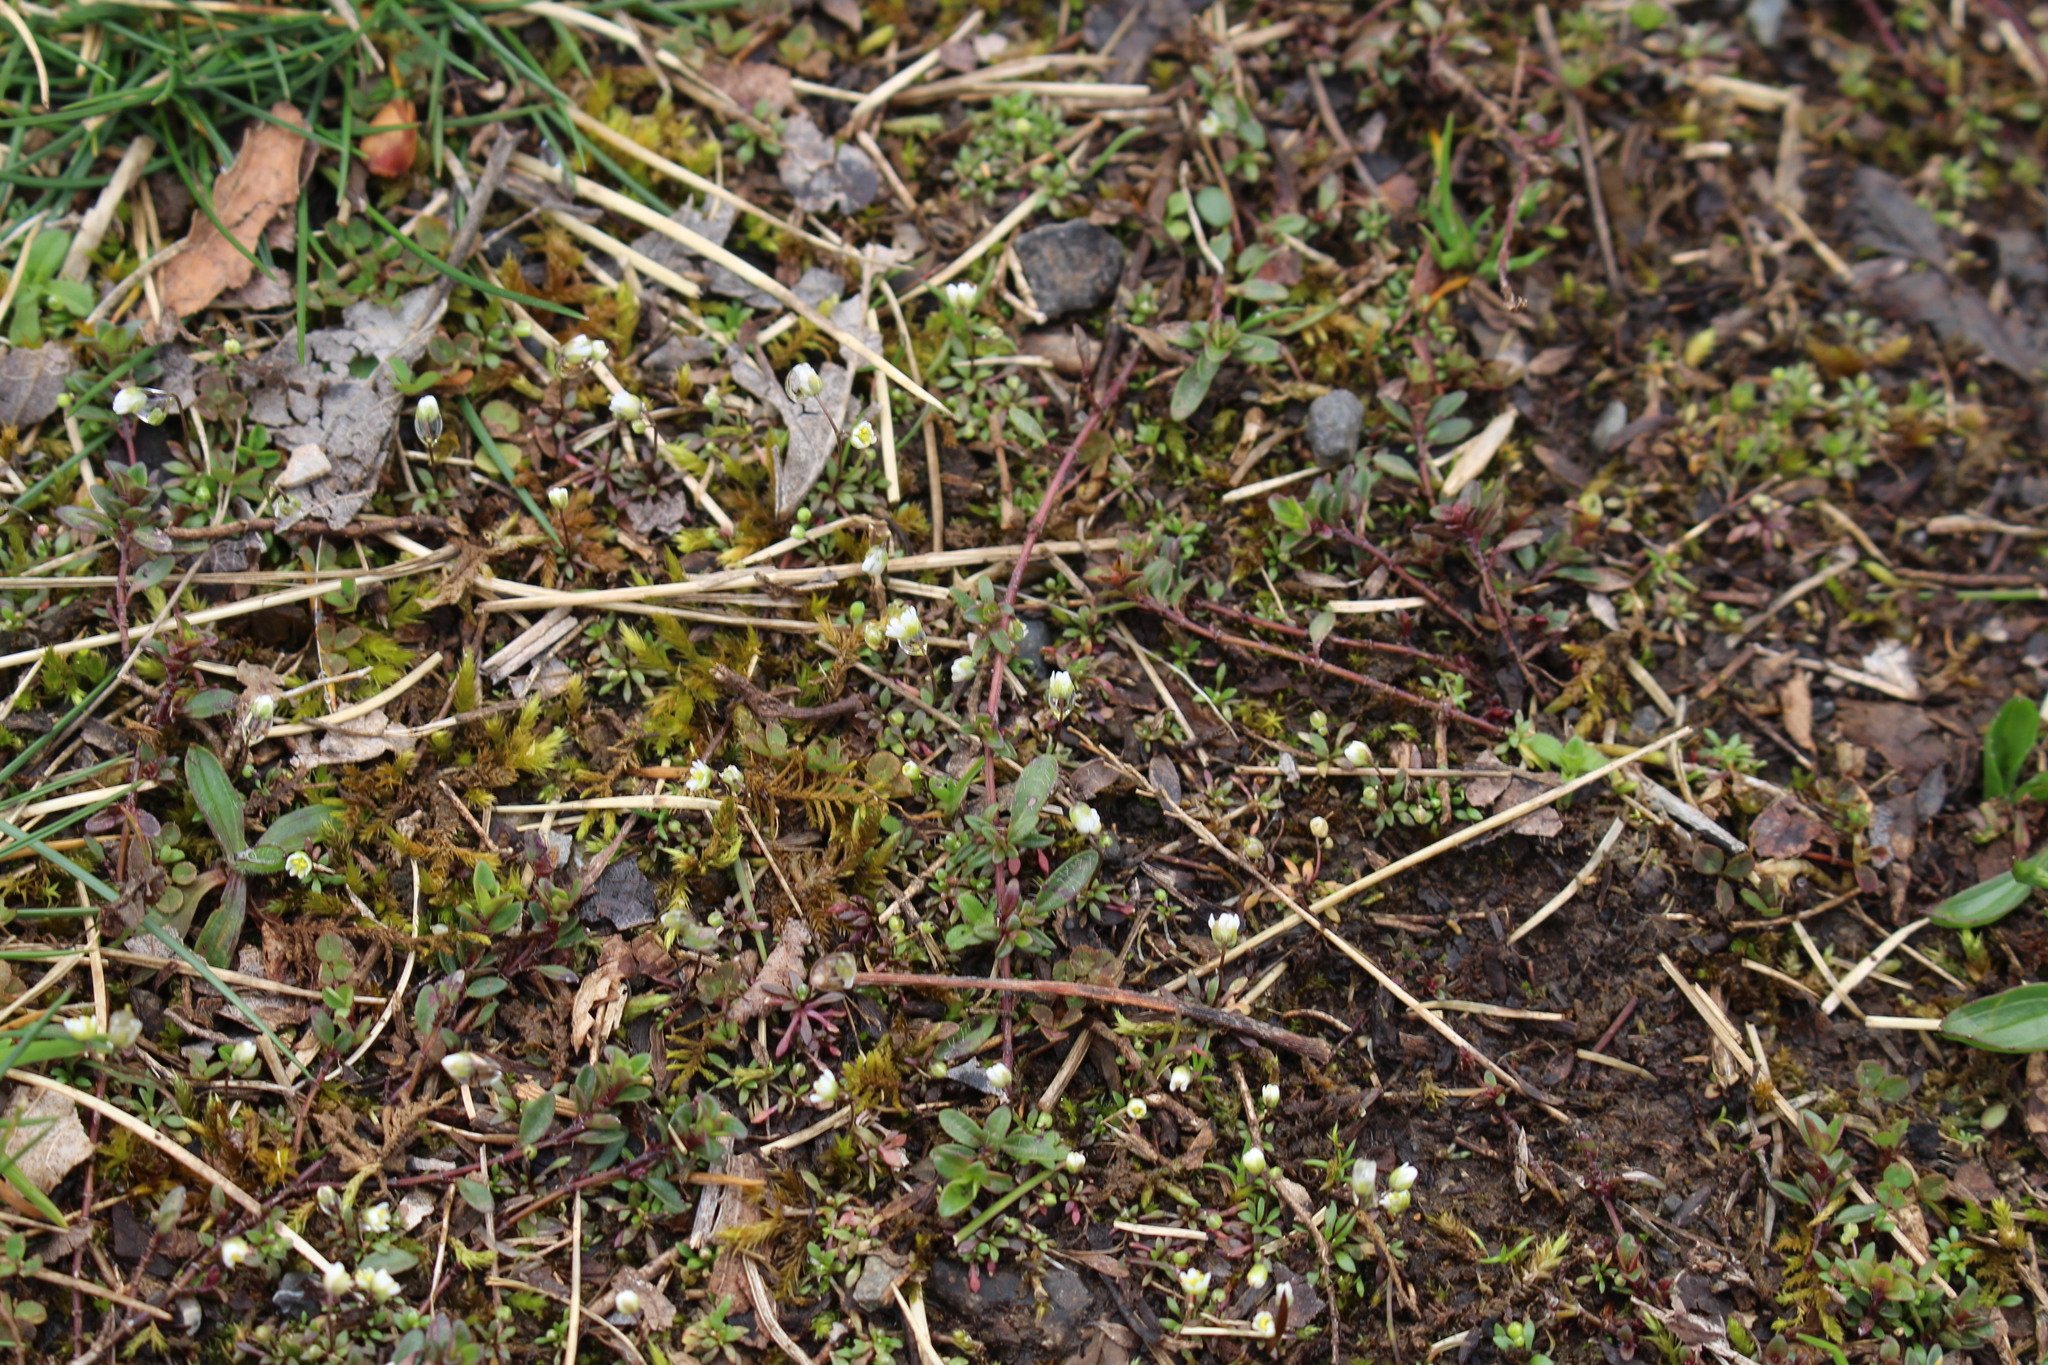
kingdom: Plantae
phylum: Tracheophyta
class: Magnoliopsida
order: Brassicales
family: Brassicaceae
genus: Draba
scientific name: Draba verna
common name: Spring draba
